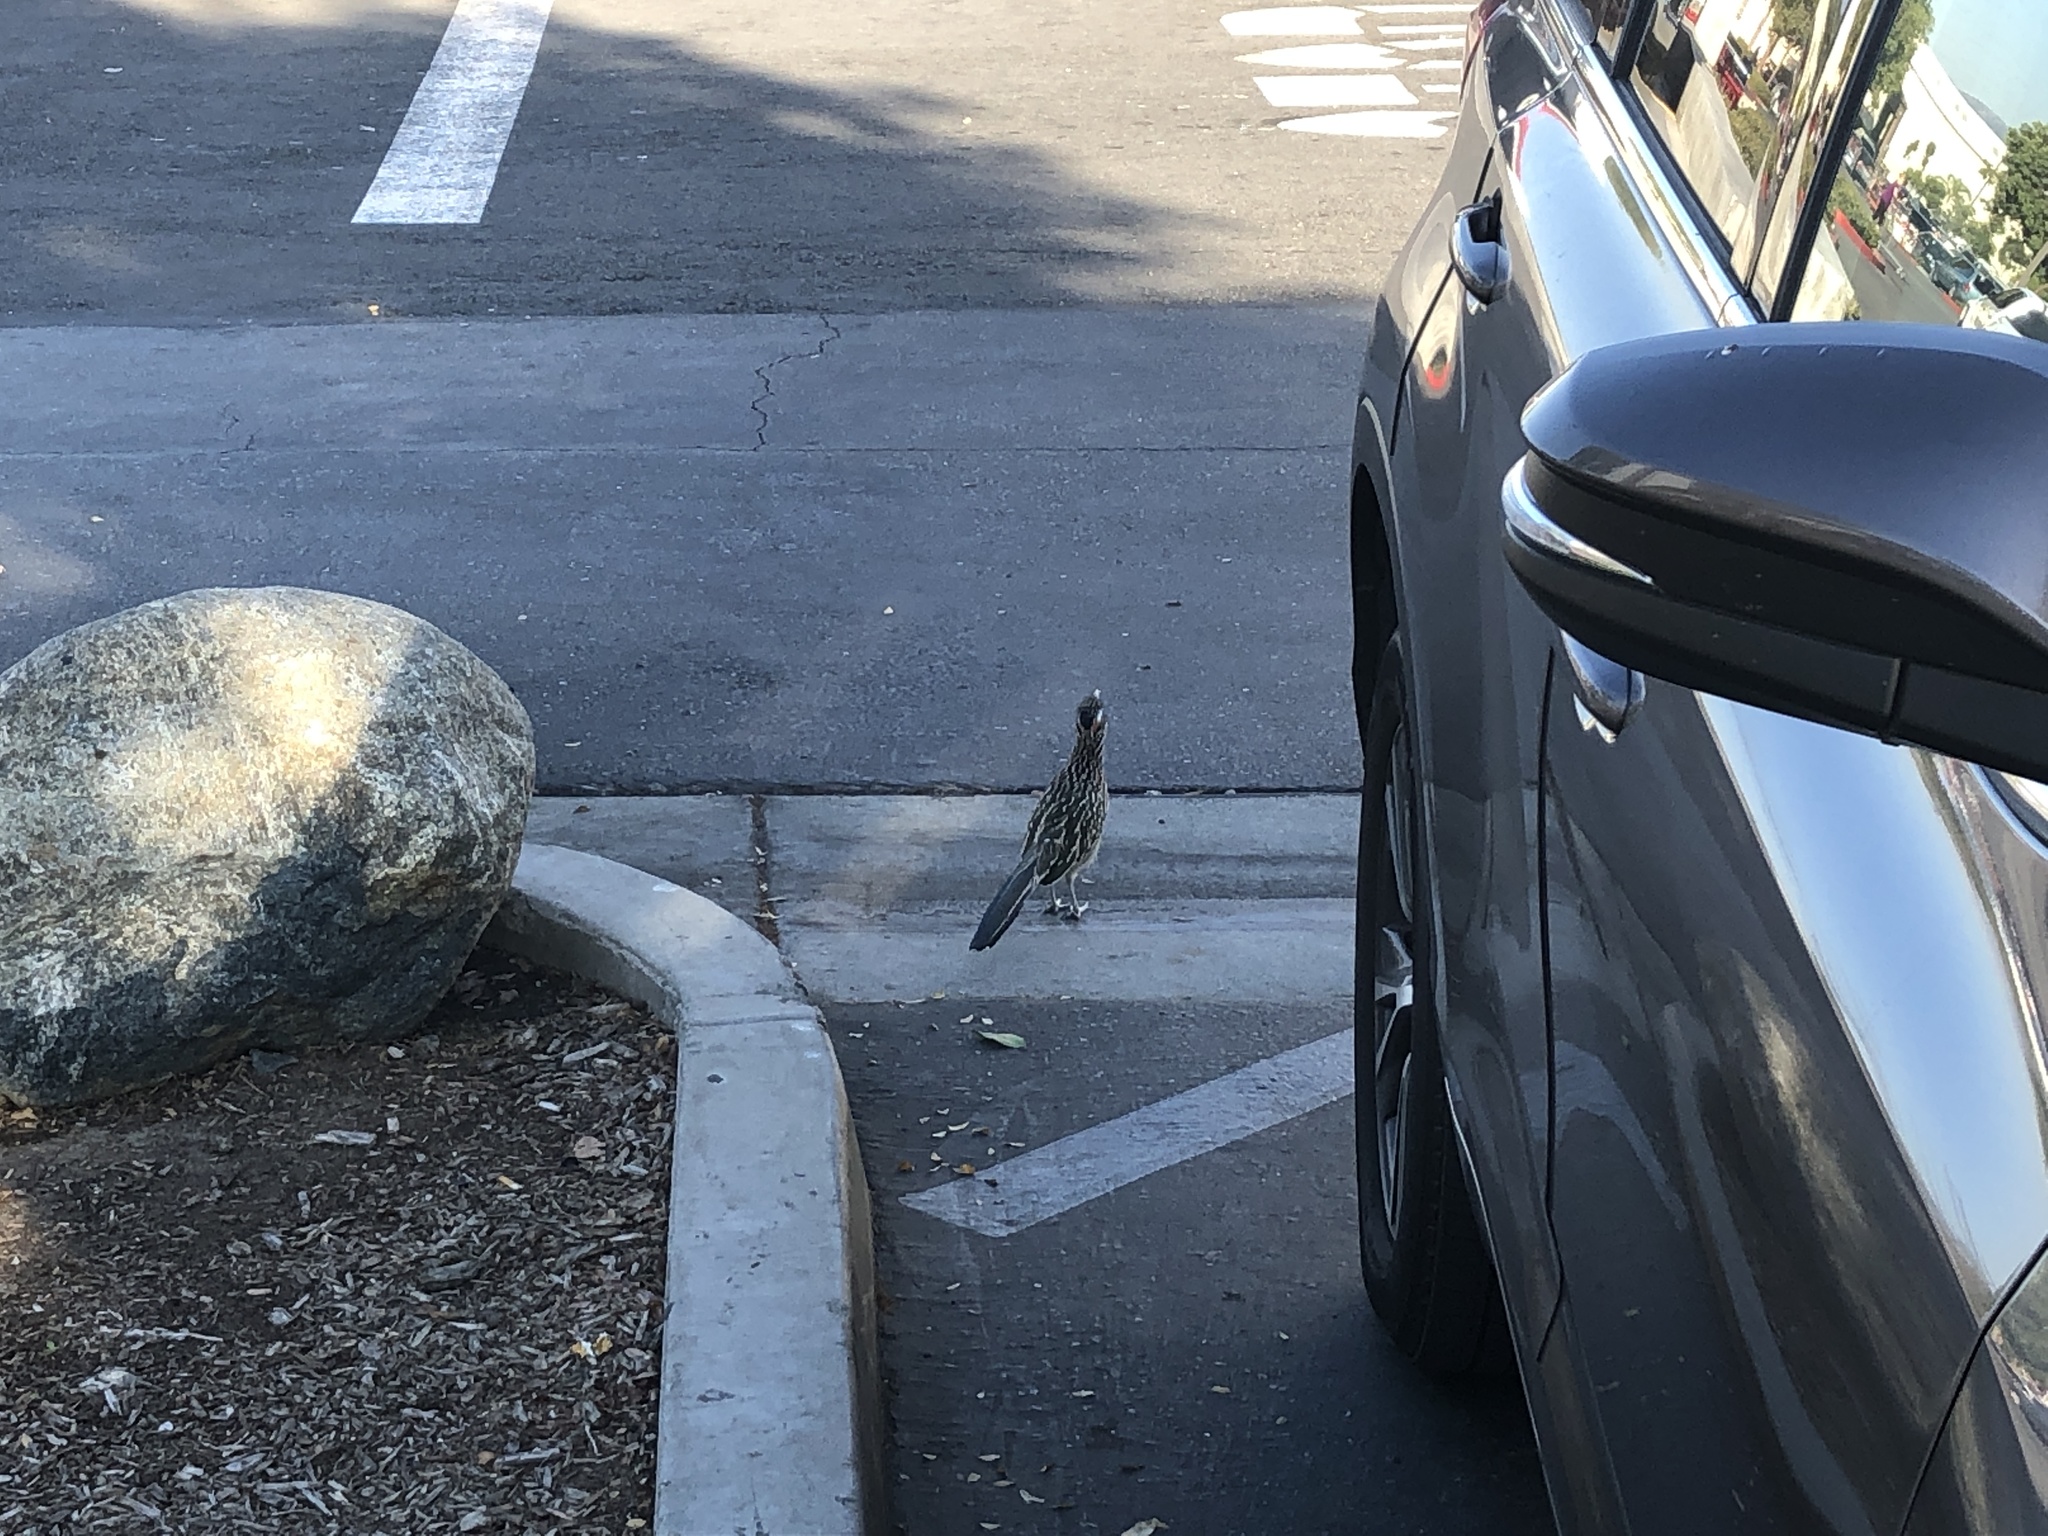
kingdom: Animalia
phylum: Chordata
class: Aves
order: Cuculiformes
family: Cuculidae
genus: Geococcyx
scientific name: Geococcyx californianus
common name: Greater roadrunner
